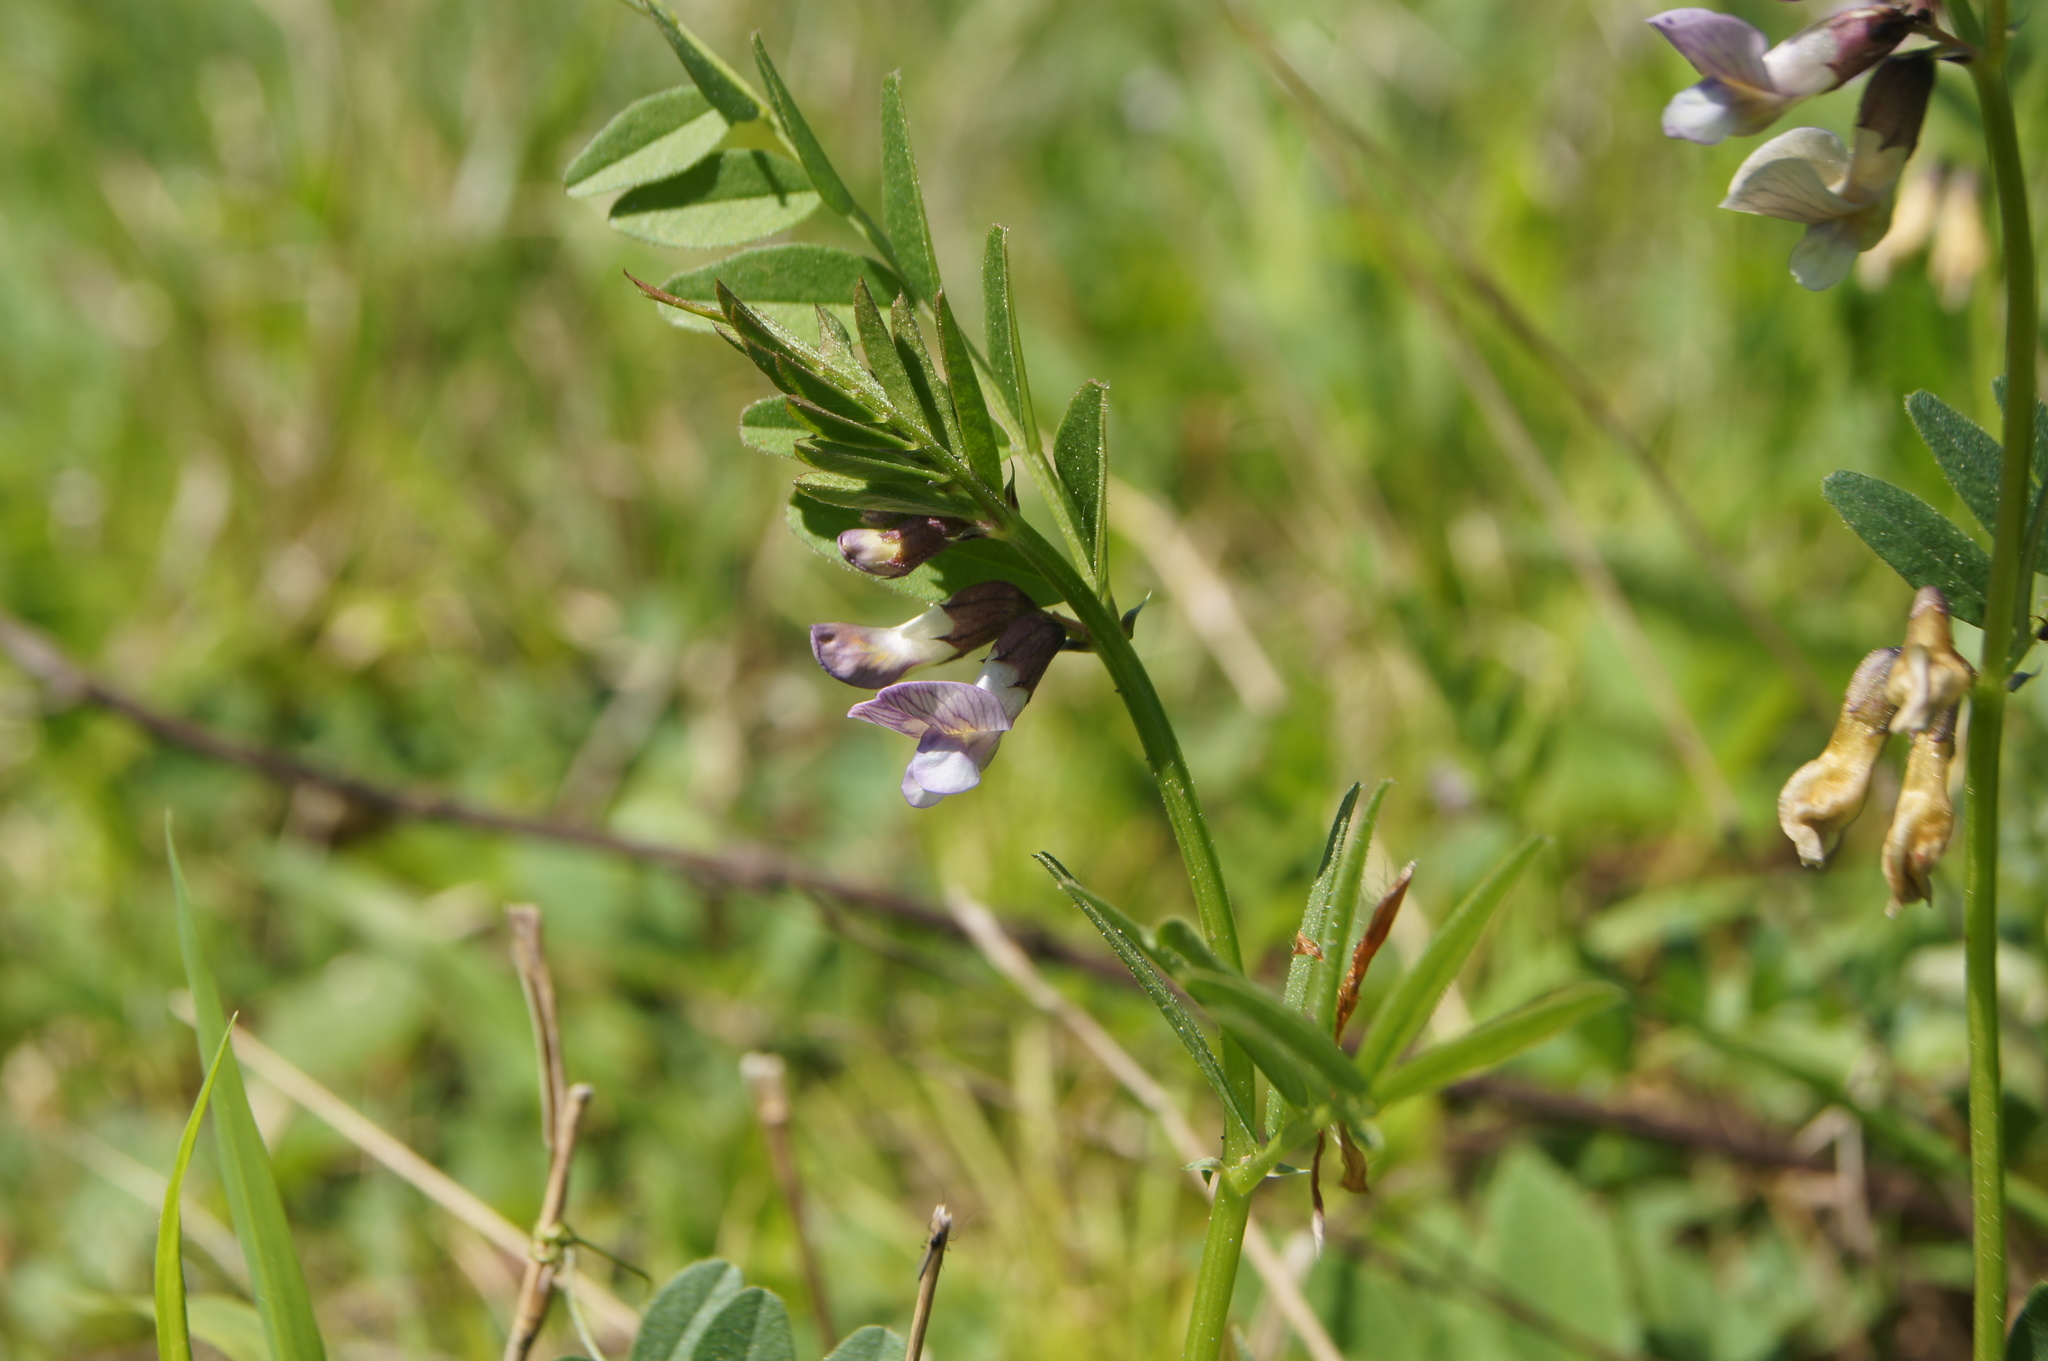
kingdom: Plantae
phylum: Tracheophyta
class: Magnoliopsida
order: Fabales
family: Fabaceae
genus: Vicia
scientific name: Vicia sepium
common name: Bush vetch
